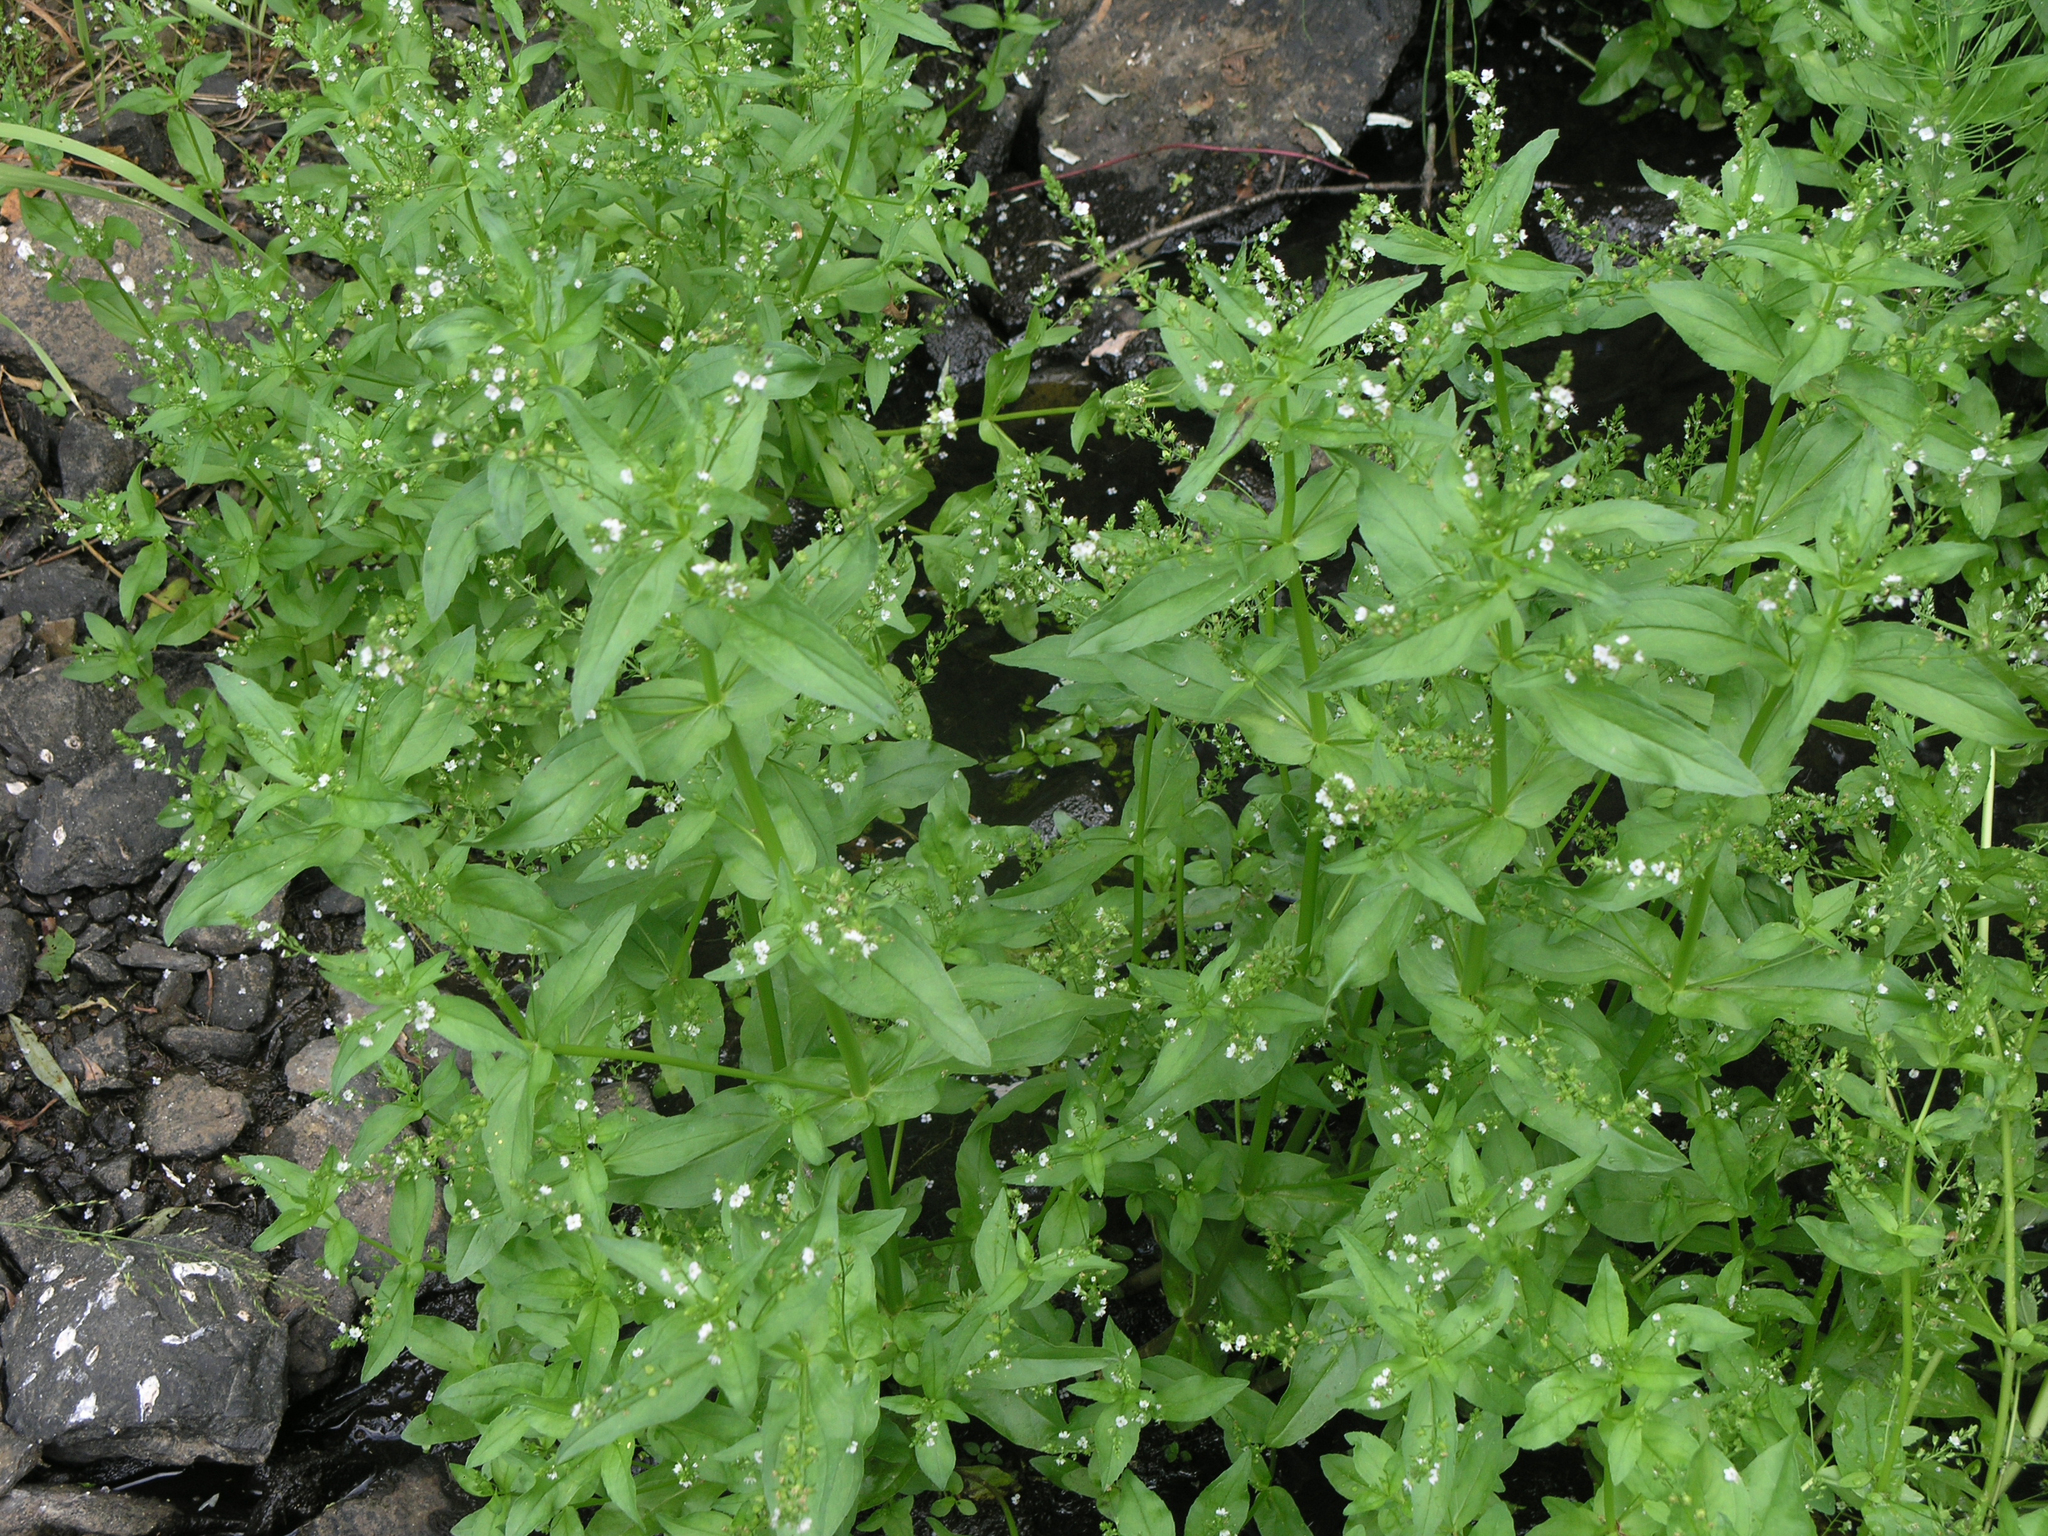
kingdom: Plantae
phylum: Tracheophyta
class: Magnoliopsida
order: Lamiales
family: Plantaginaceae
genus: Veronica
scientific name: Veronica anagallis-aquatica
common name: Water speedwell
